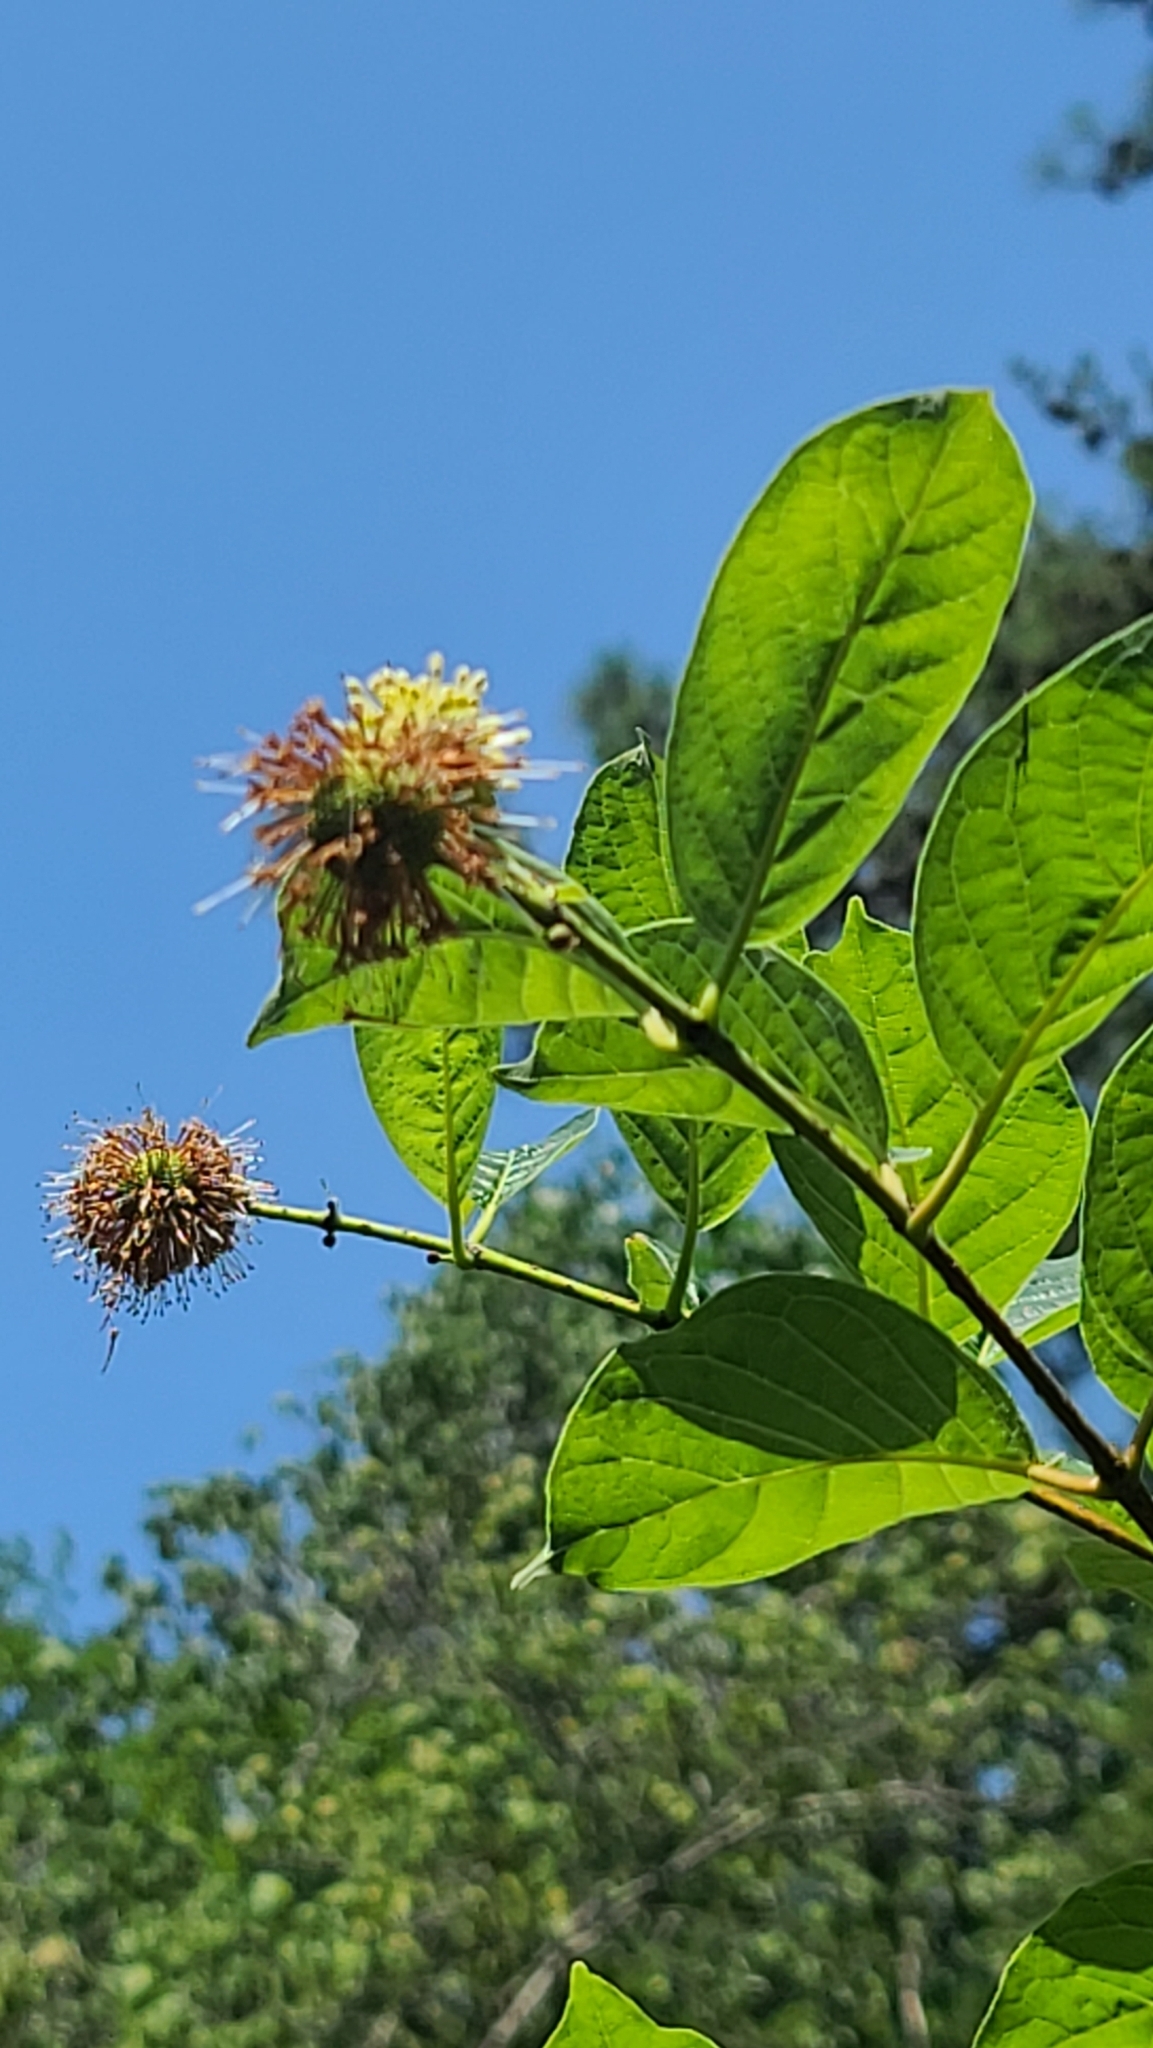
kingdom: Plantae
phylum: Tracheophyta
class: Magnoliopsida
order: Gentianales
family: Rubiaceae
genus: Cephalanthus
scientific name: Cephalanthus occidentalis
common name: Button-willow
